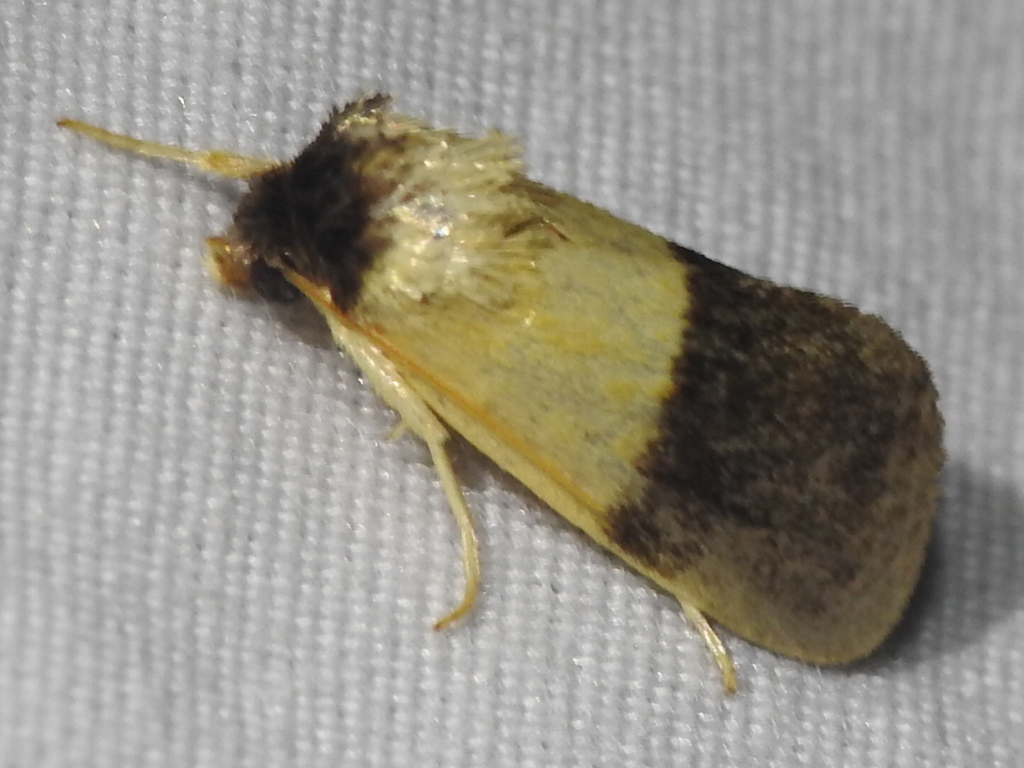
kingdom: Animalia
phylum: Arthropoda
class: Insecta
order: Lepidoptera
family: Noctuidae
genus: Exyra
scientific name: Exyra semicrocea
